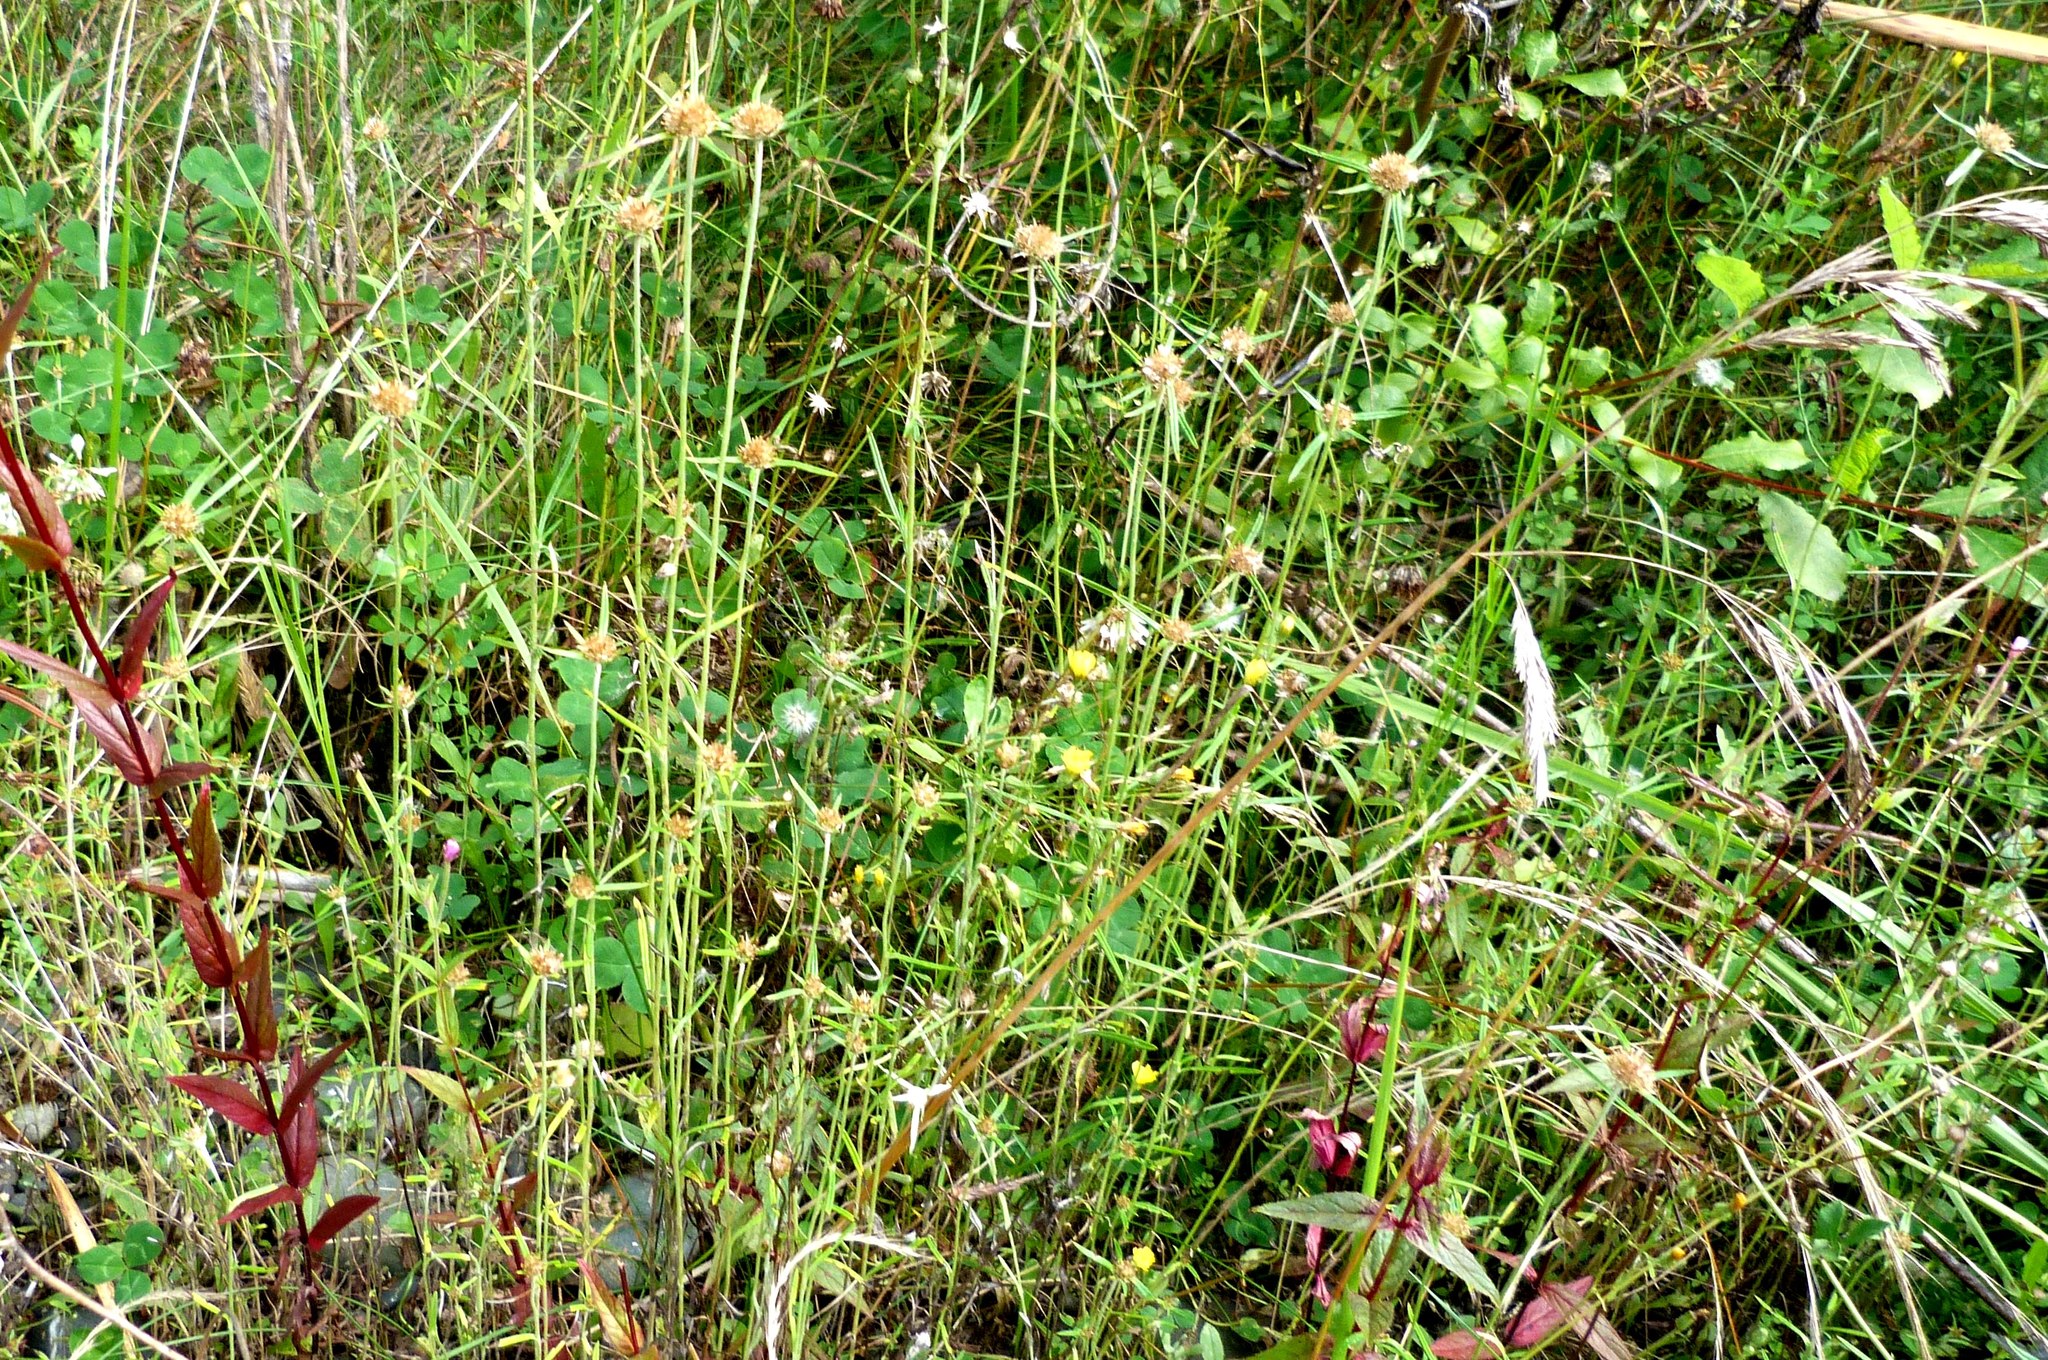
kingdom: Plantae
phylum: Tracheophyta
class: Magnoliopsida
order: Asterales
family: Asteraceae
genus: Euchiton
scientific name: Euchiton involucratus
